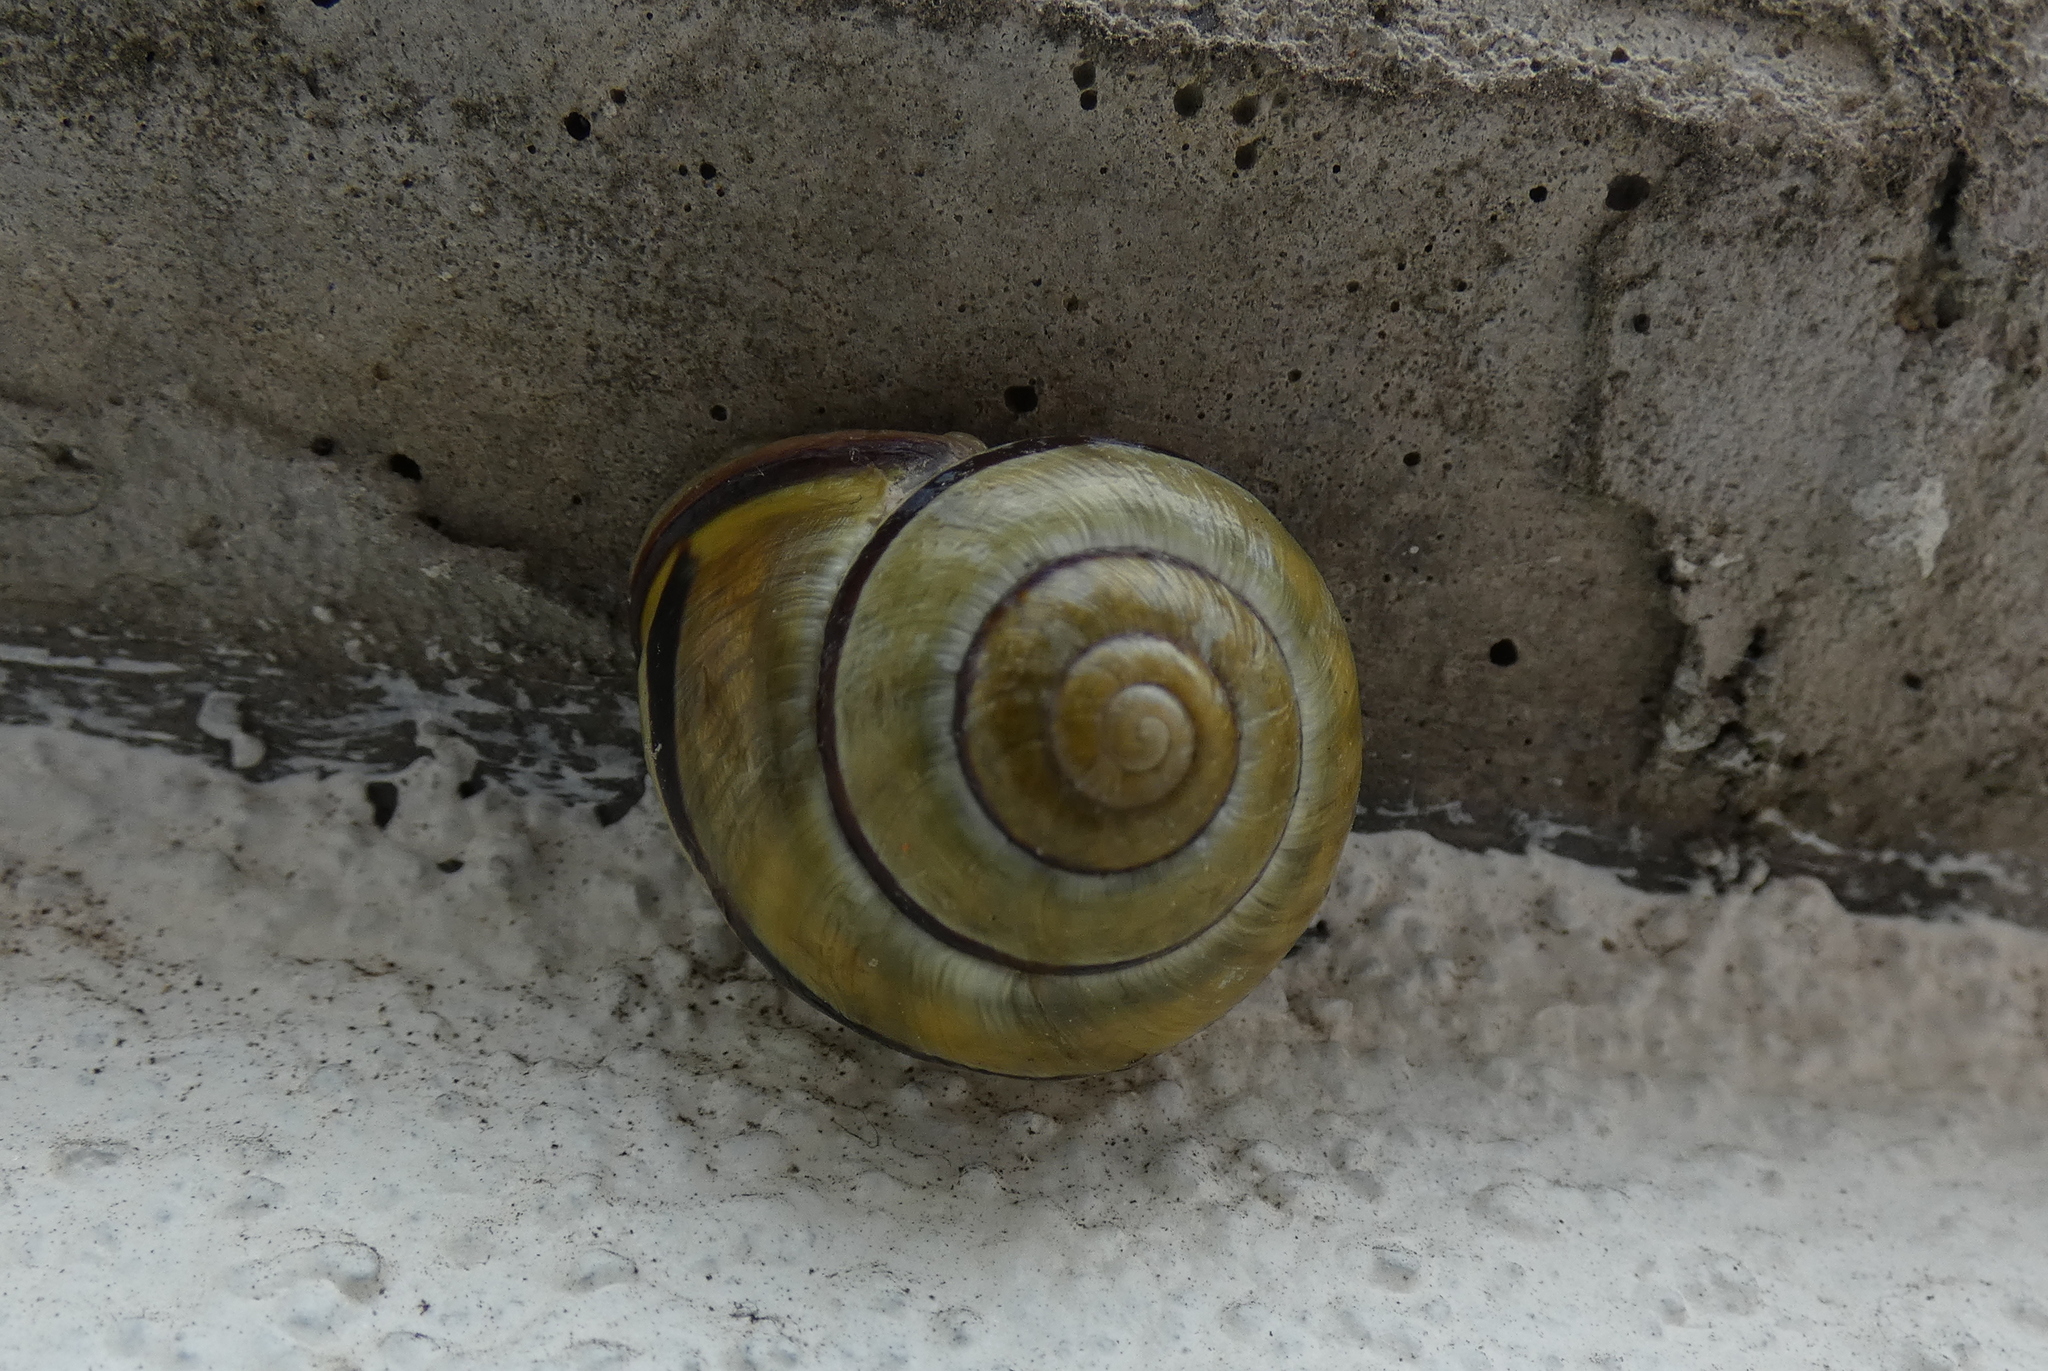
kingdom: Animalia
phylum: Mollusca
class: Gastropoda
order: Stylommatophora
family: Helicidae
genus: Cepaea
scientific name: Cepaea nemoralis
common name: Grovesnail
